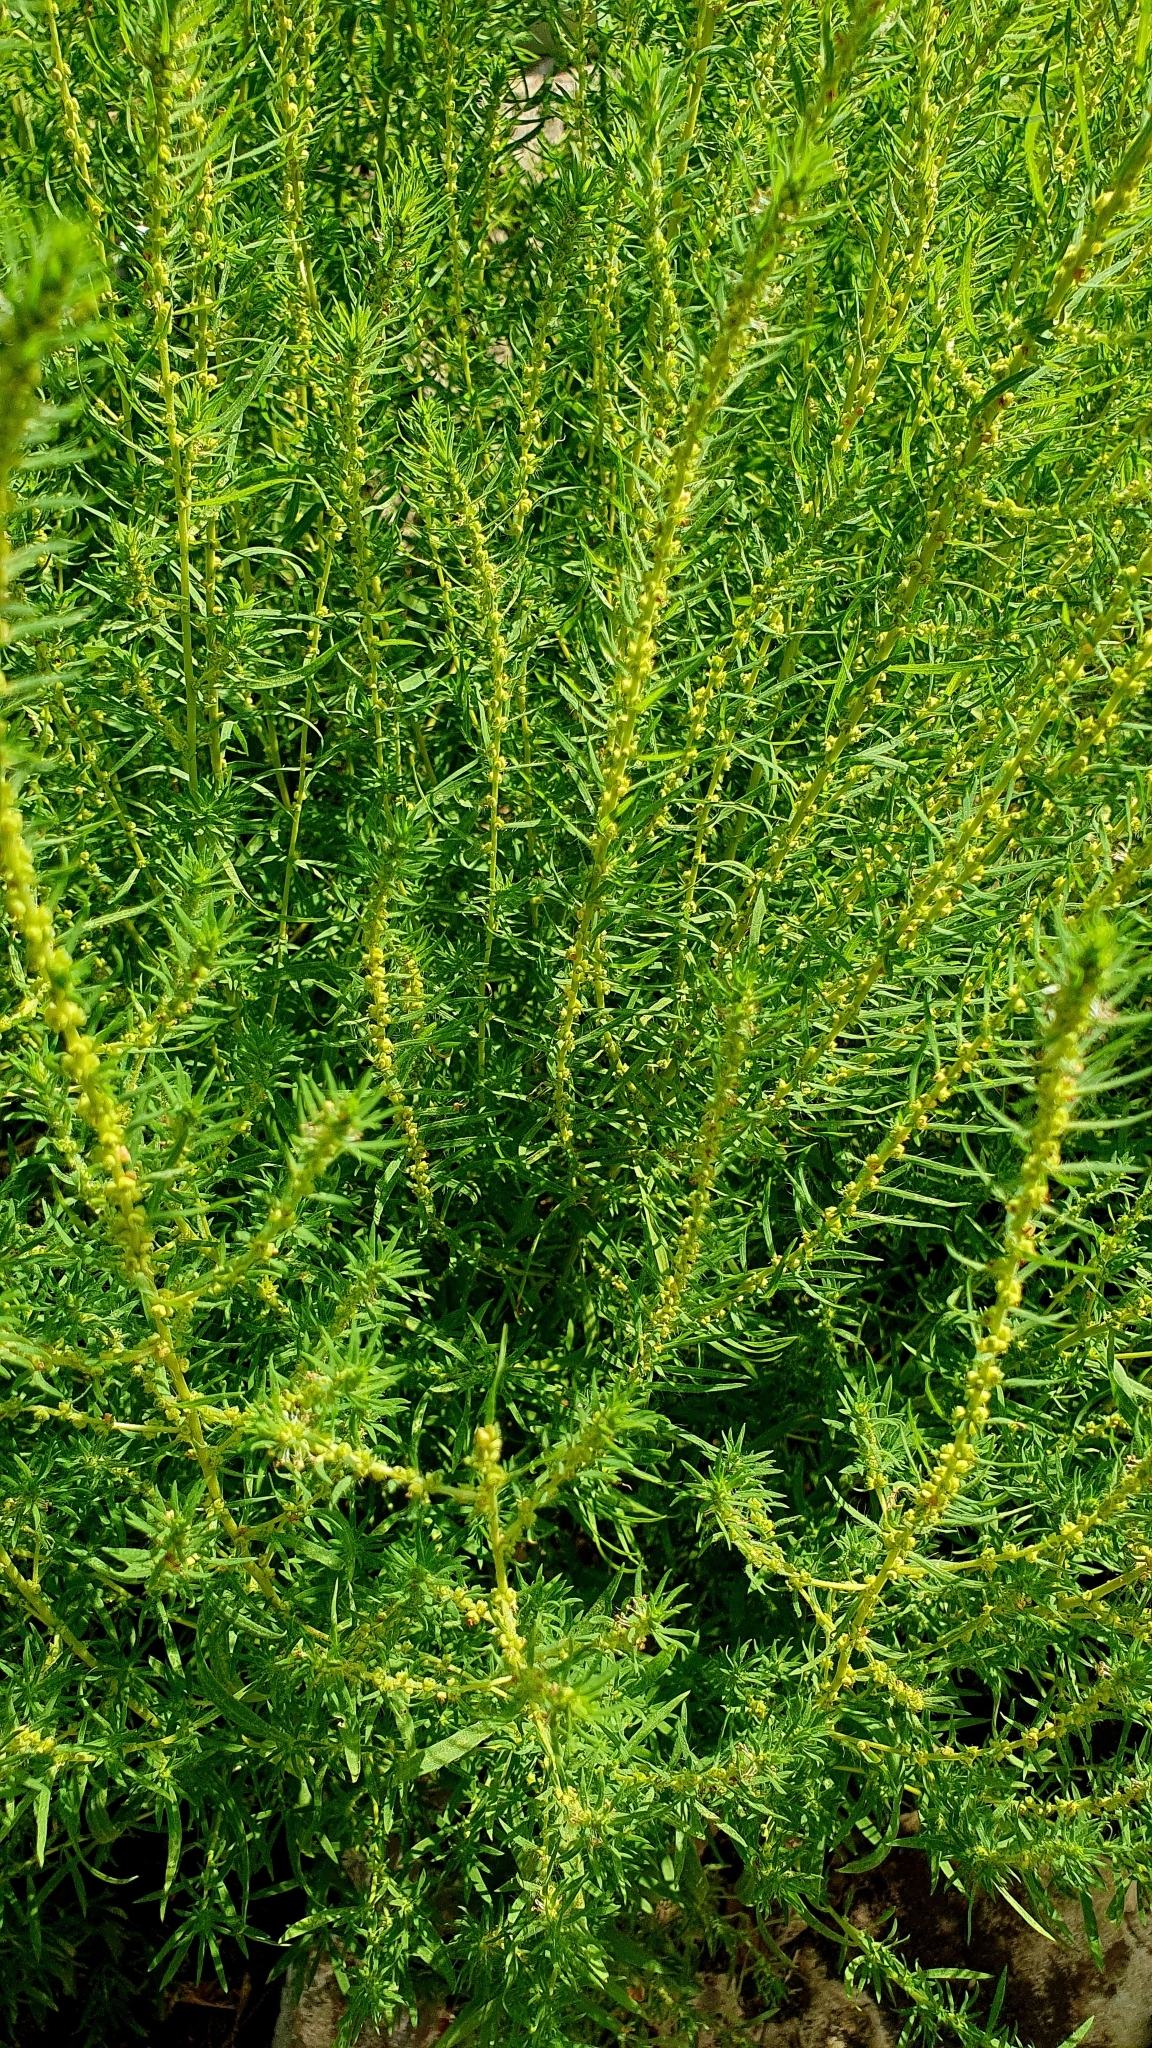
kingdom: Plantae
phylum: Tracheophyta
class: Magnoliopsida
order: Caryophyllales
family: Amaranthaceae
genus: Bassia
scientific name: Bassia scoparia
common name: Belvedere
